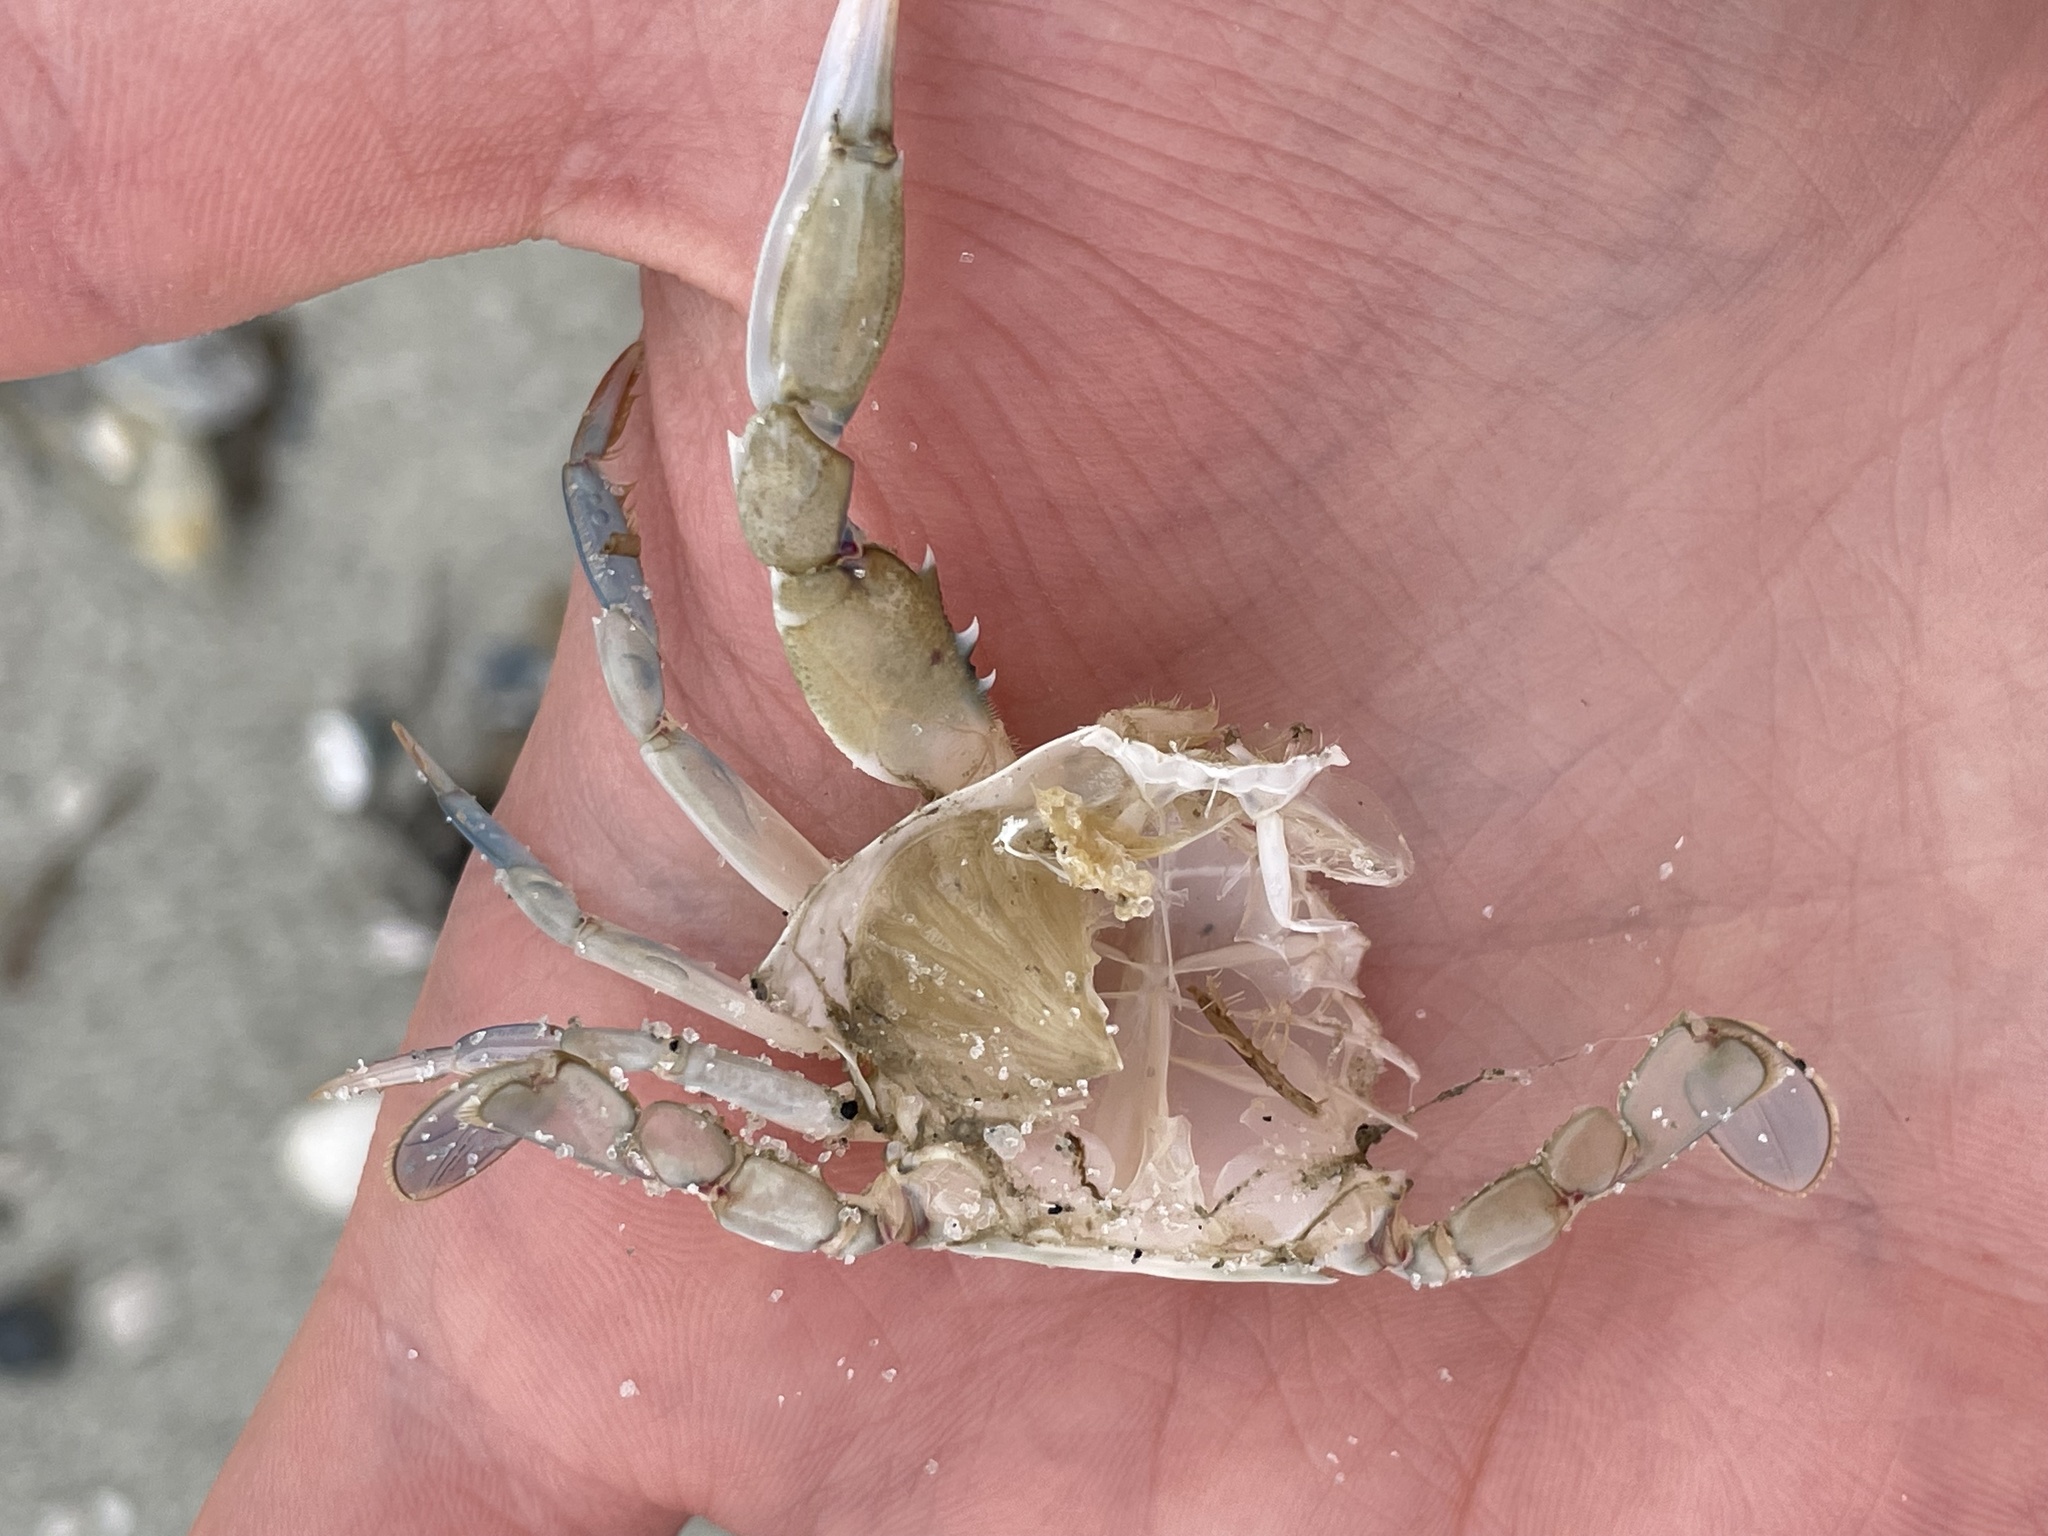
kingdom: Animalia
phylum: Arthropoda
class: Malacostraca
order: Decapoda
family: Portunidae
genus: Callinectes
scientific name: Callinectes similis
